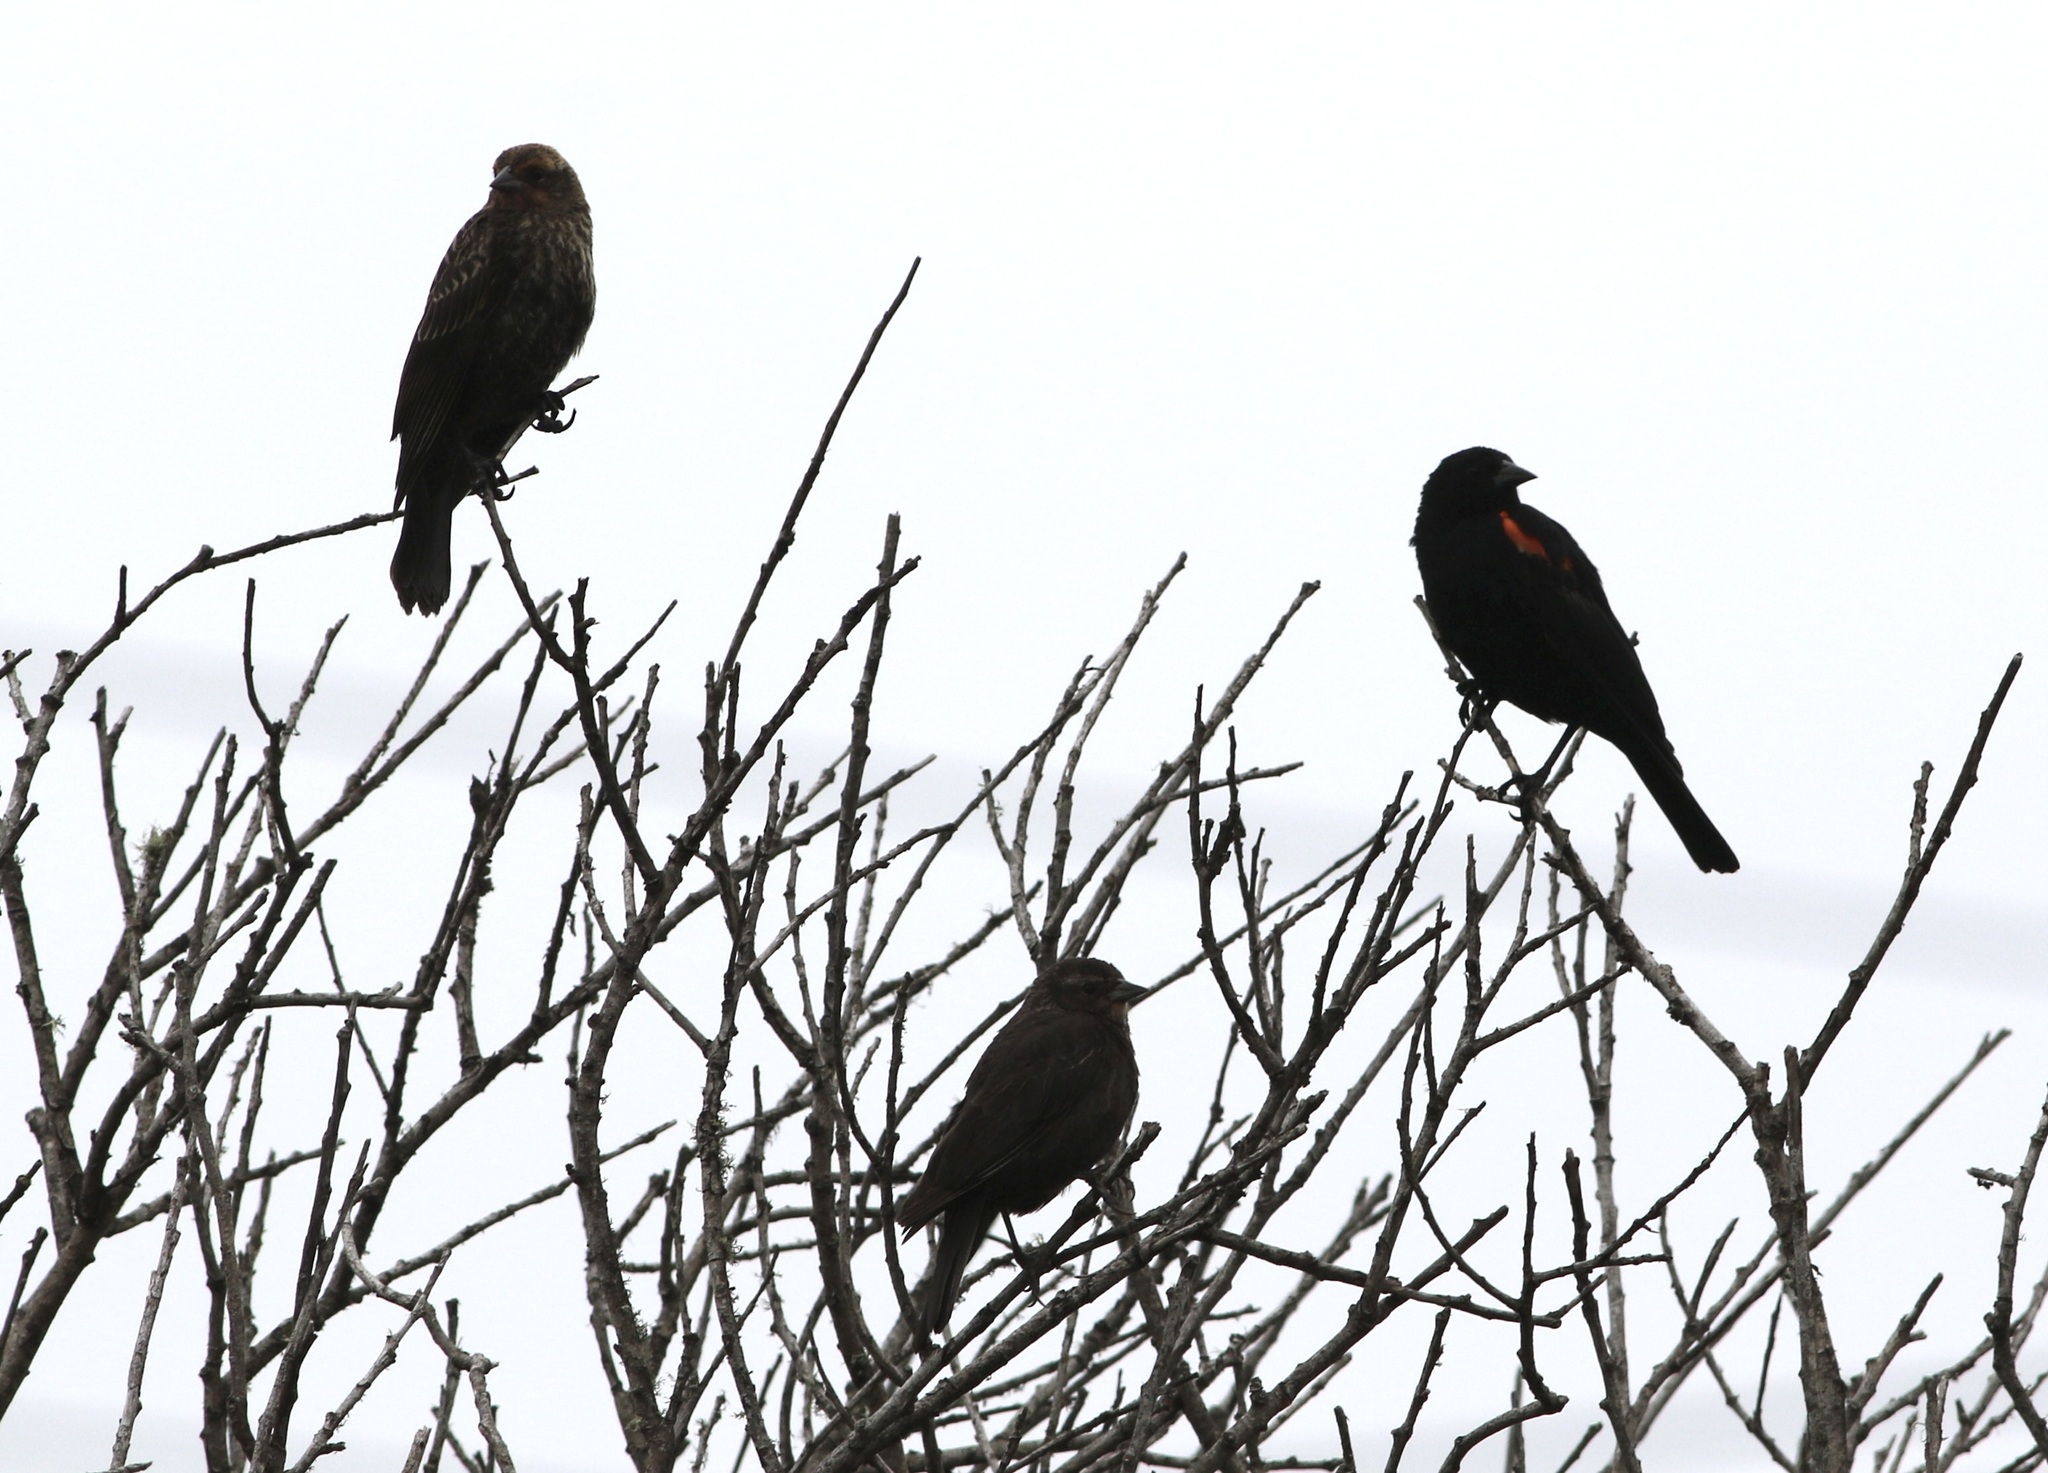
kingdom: Animalia
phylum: Chordata
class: Aves
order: Passeriformes
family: Icteridae
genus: Agelaius
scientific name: Agelaius phoeniceus
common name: Red-winged blackbird
